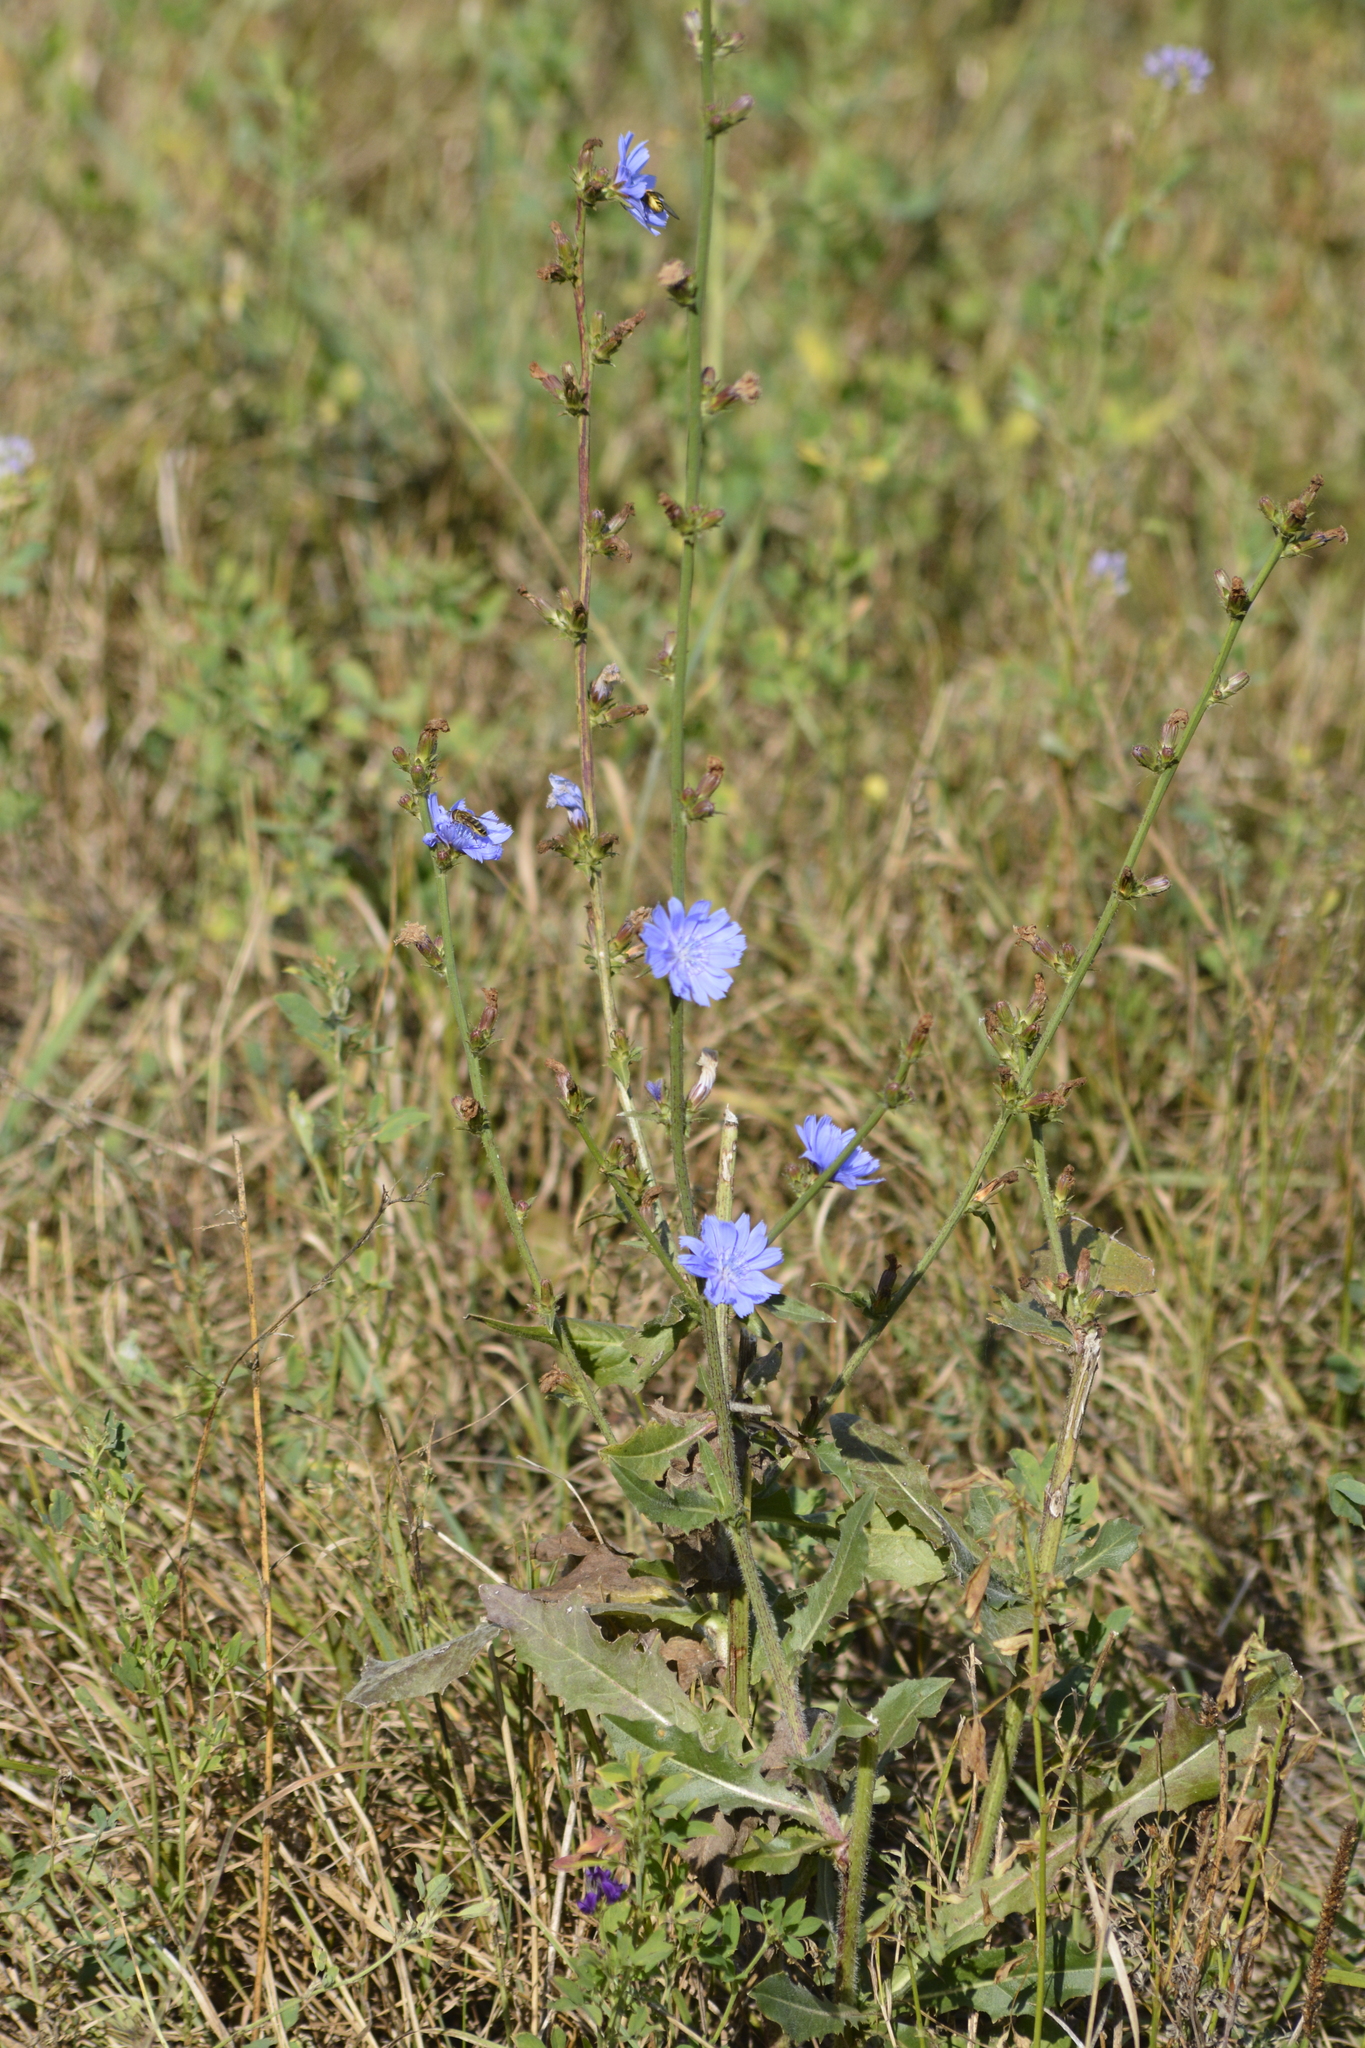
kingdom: Plantae
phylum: Tracheophyta
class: Magnoliopsida
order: Asterales
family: Asteraceae
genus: Cichorium
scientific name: Cichorium intybus
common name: Chicory
